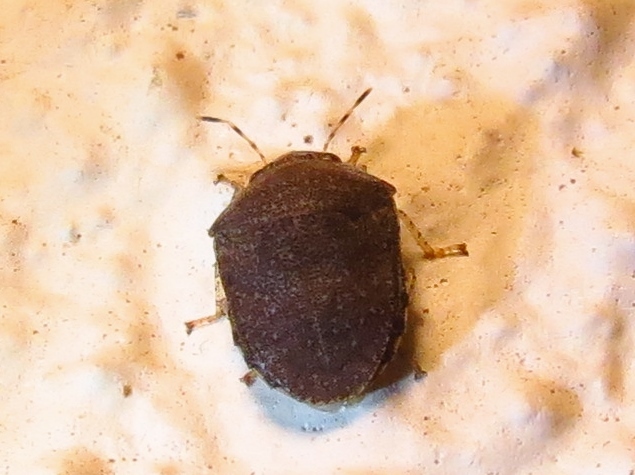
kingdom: Animalia
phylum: Arthropoda
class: Insecta
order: Hemiptera
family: Scutelleridae
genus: Diolcus
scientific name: Diolcus variegatus
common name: Shield backed bug
